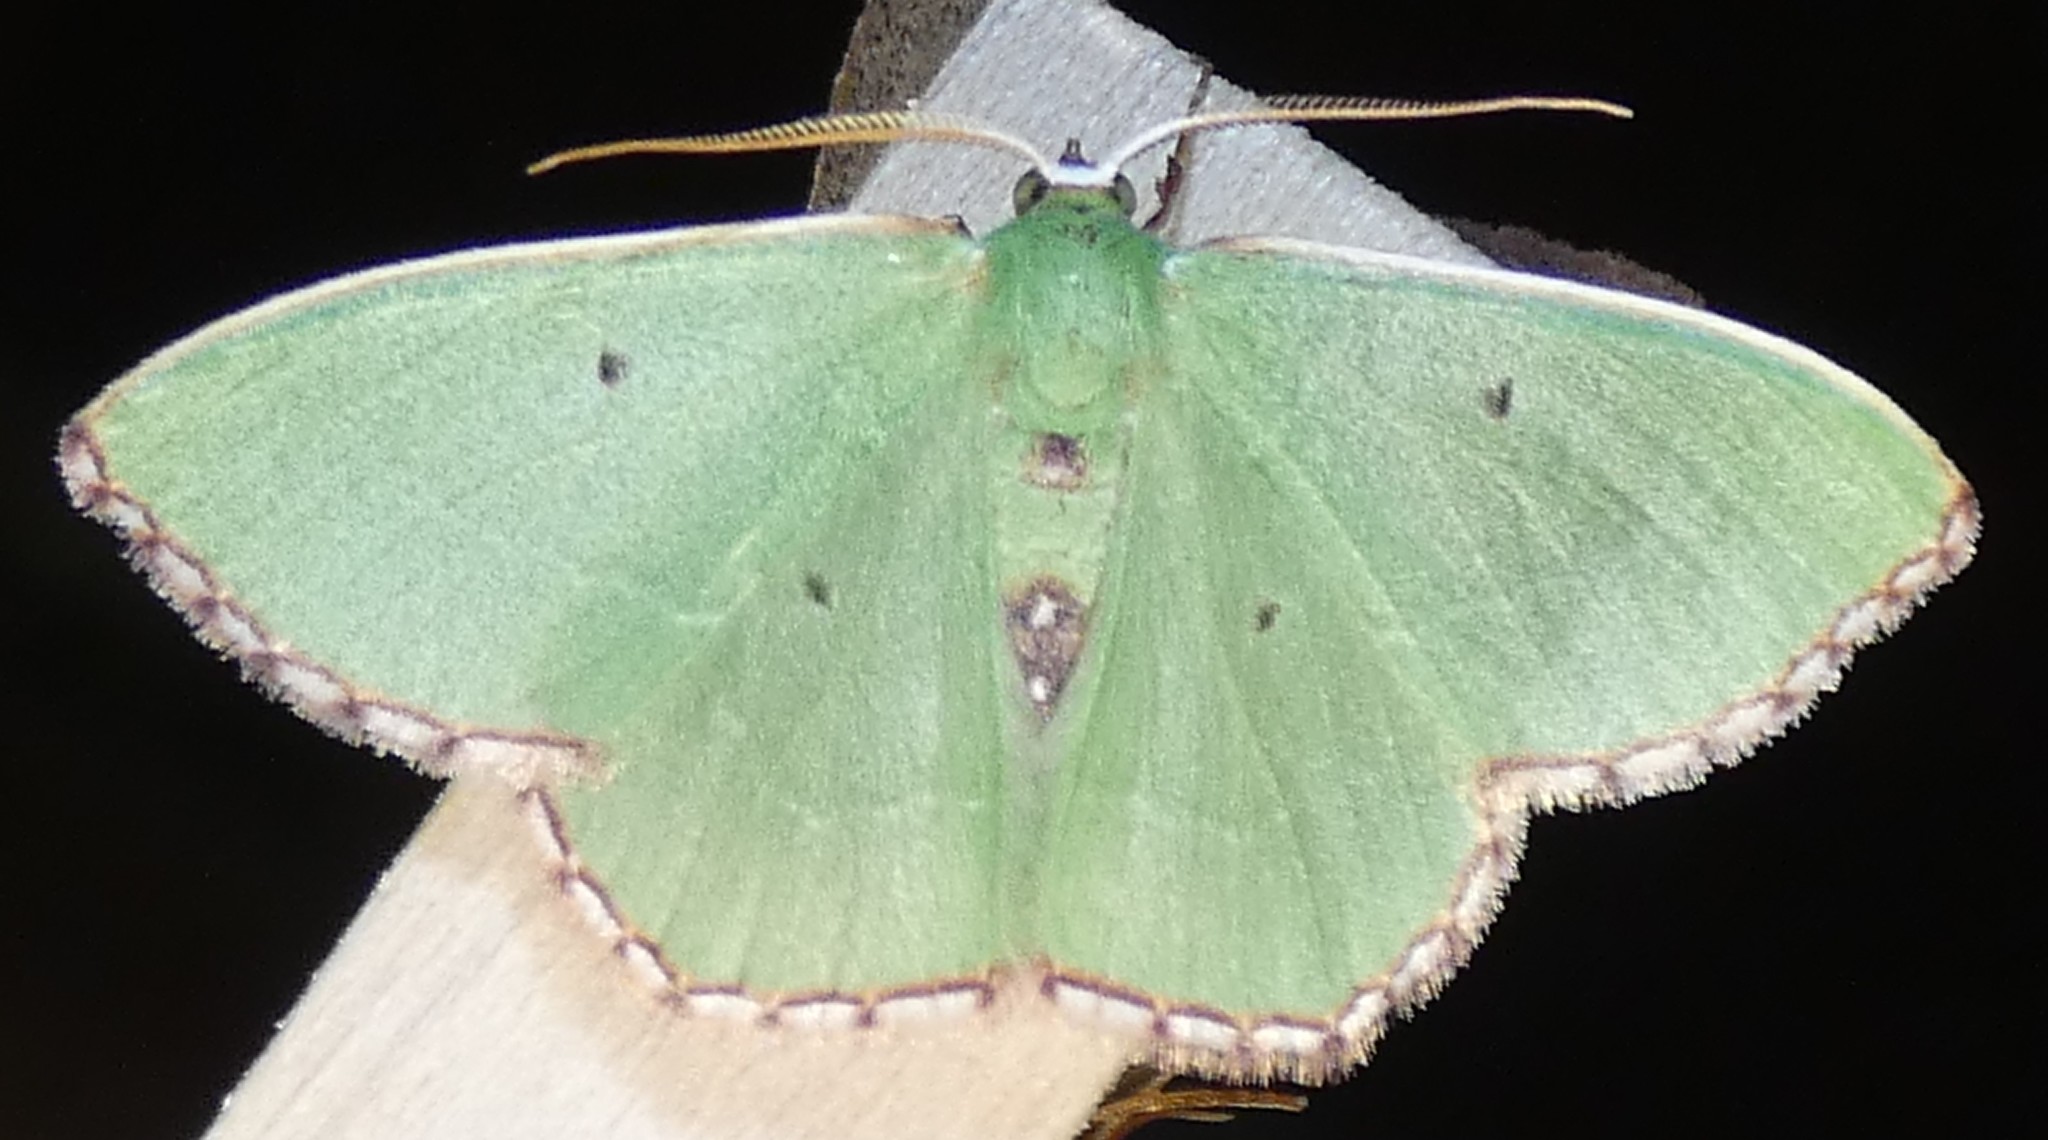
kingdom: Animalia
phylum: Arthropoda
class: Insecta
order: Lepidoptera
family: Geometridae
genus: Nemoria
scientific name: Nemoria saturiba
